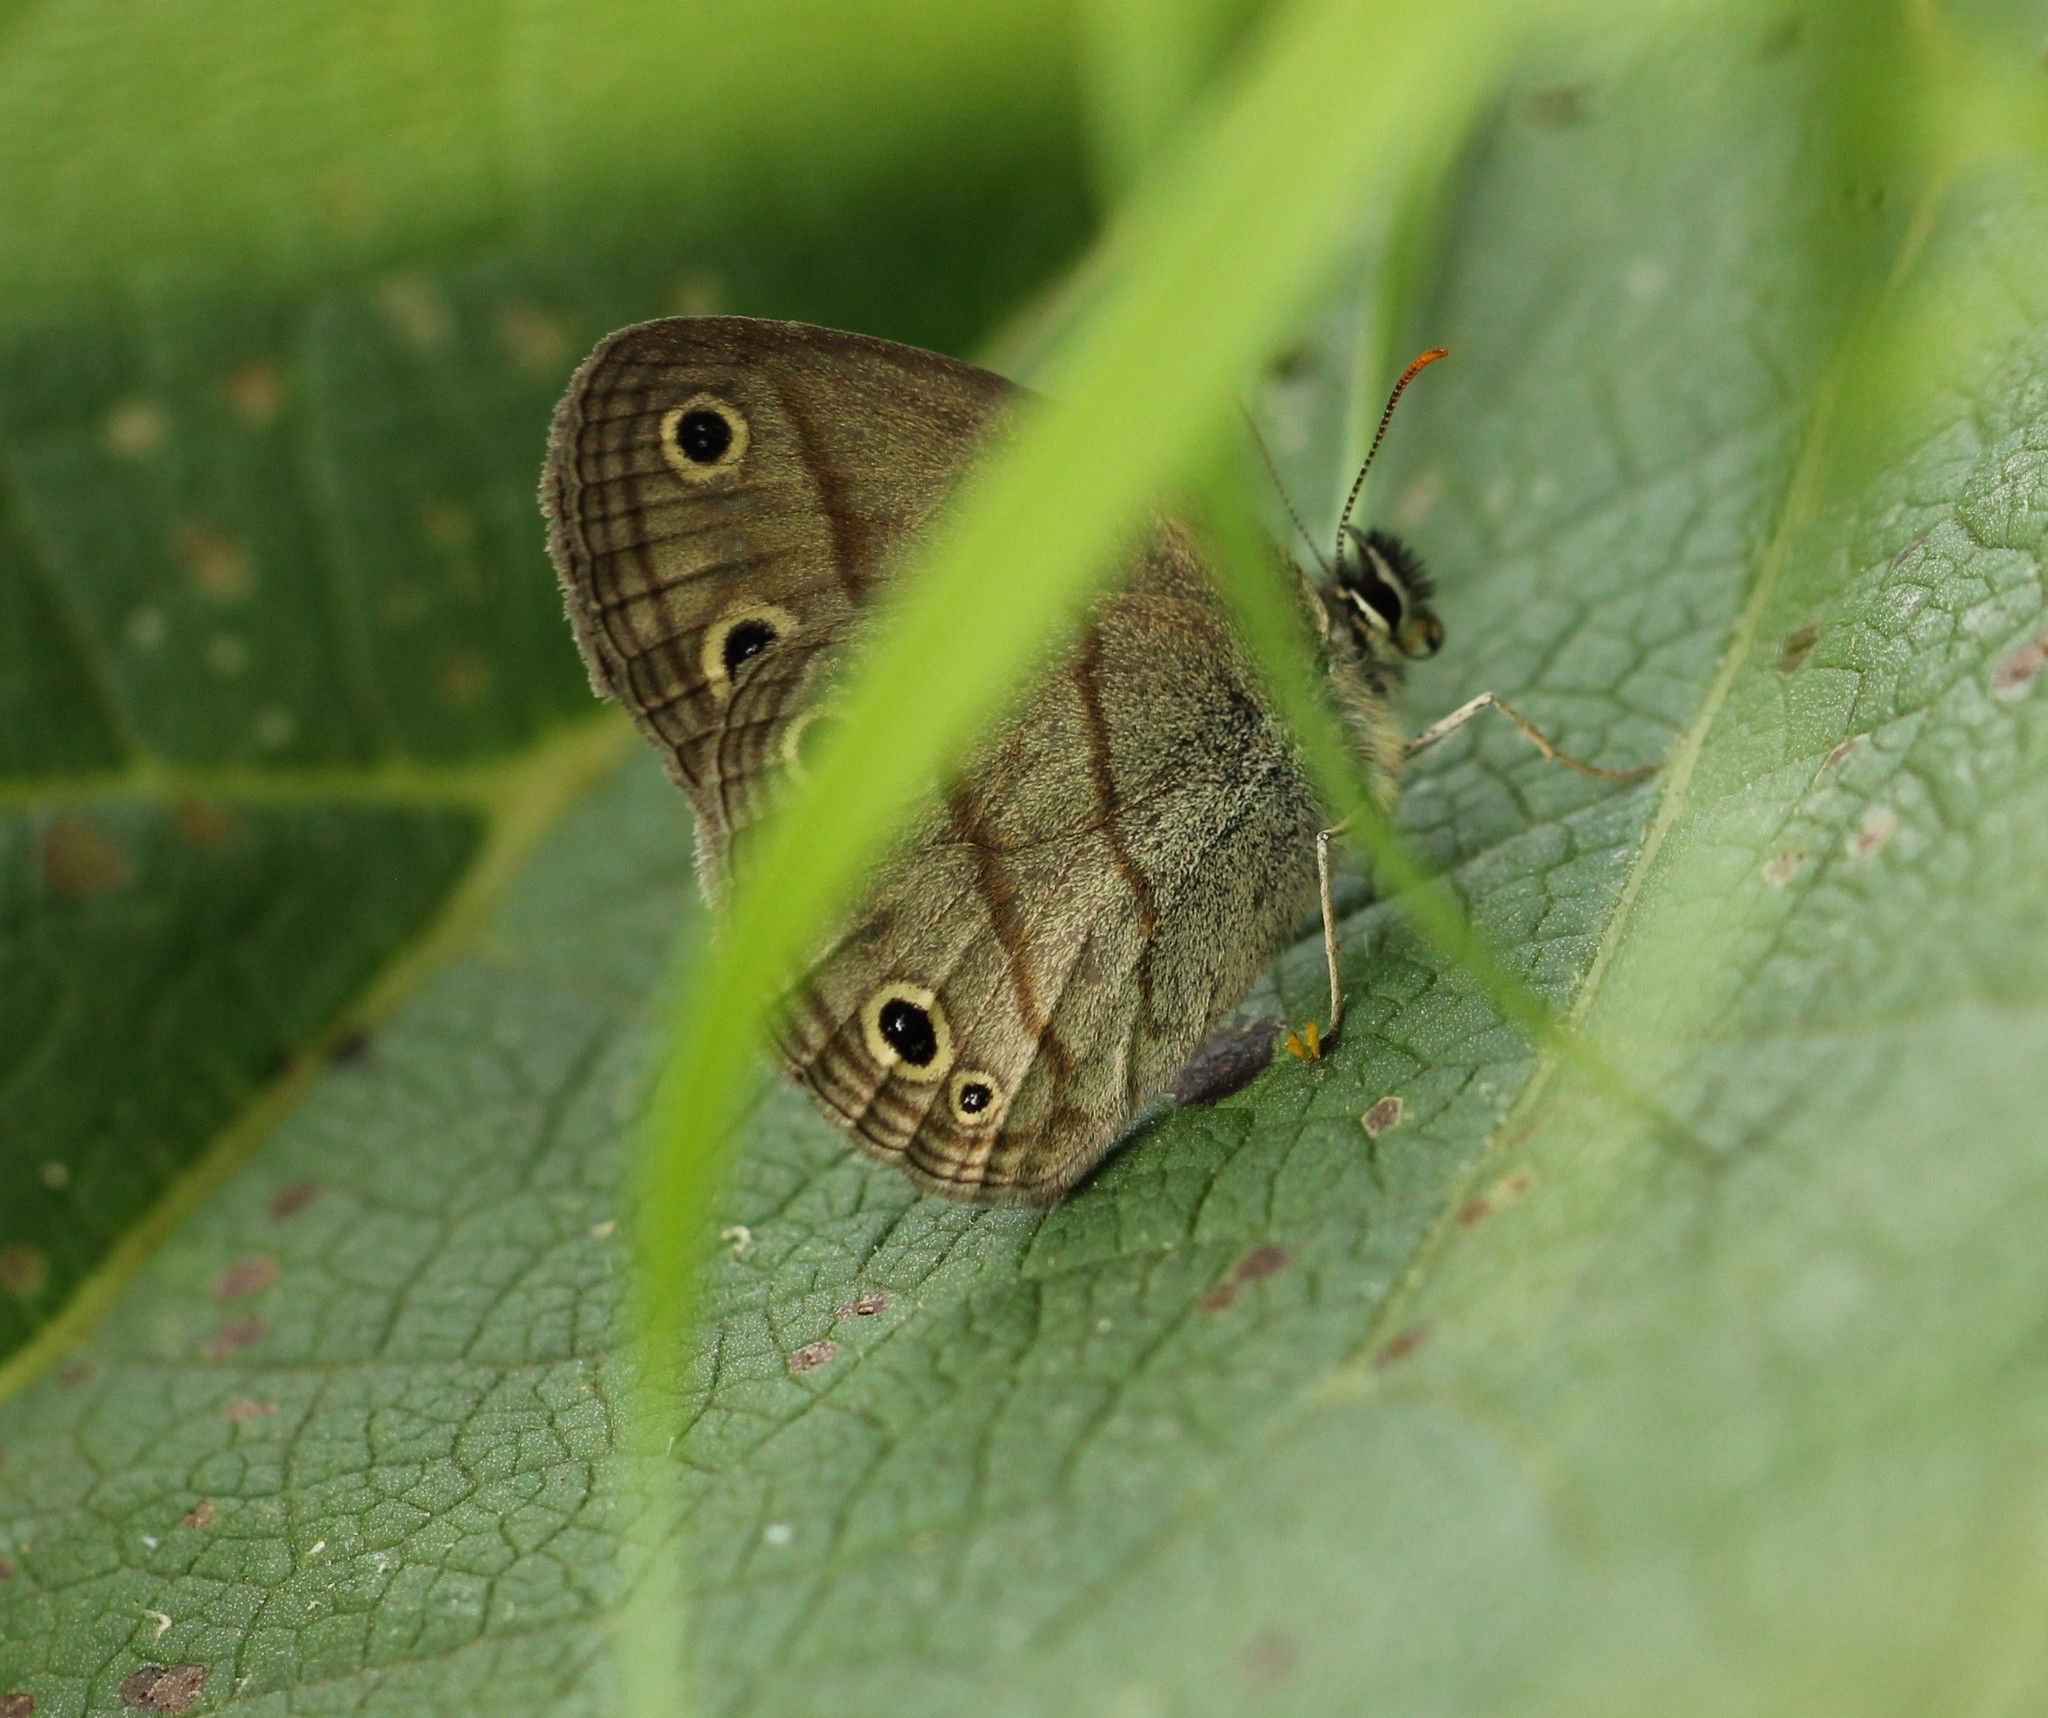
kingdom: Animalia
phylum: Arthropoda
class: Insecta
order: Lepidoptera
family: Nymphalidae
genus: Euptychia
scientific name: Euptychia cymela
